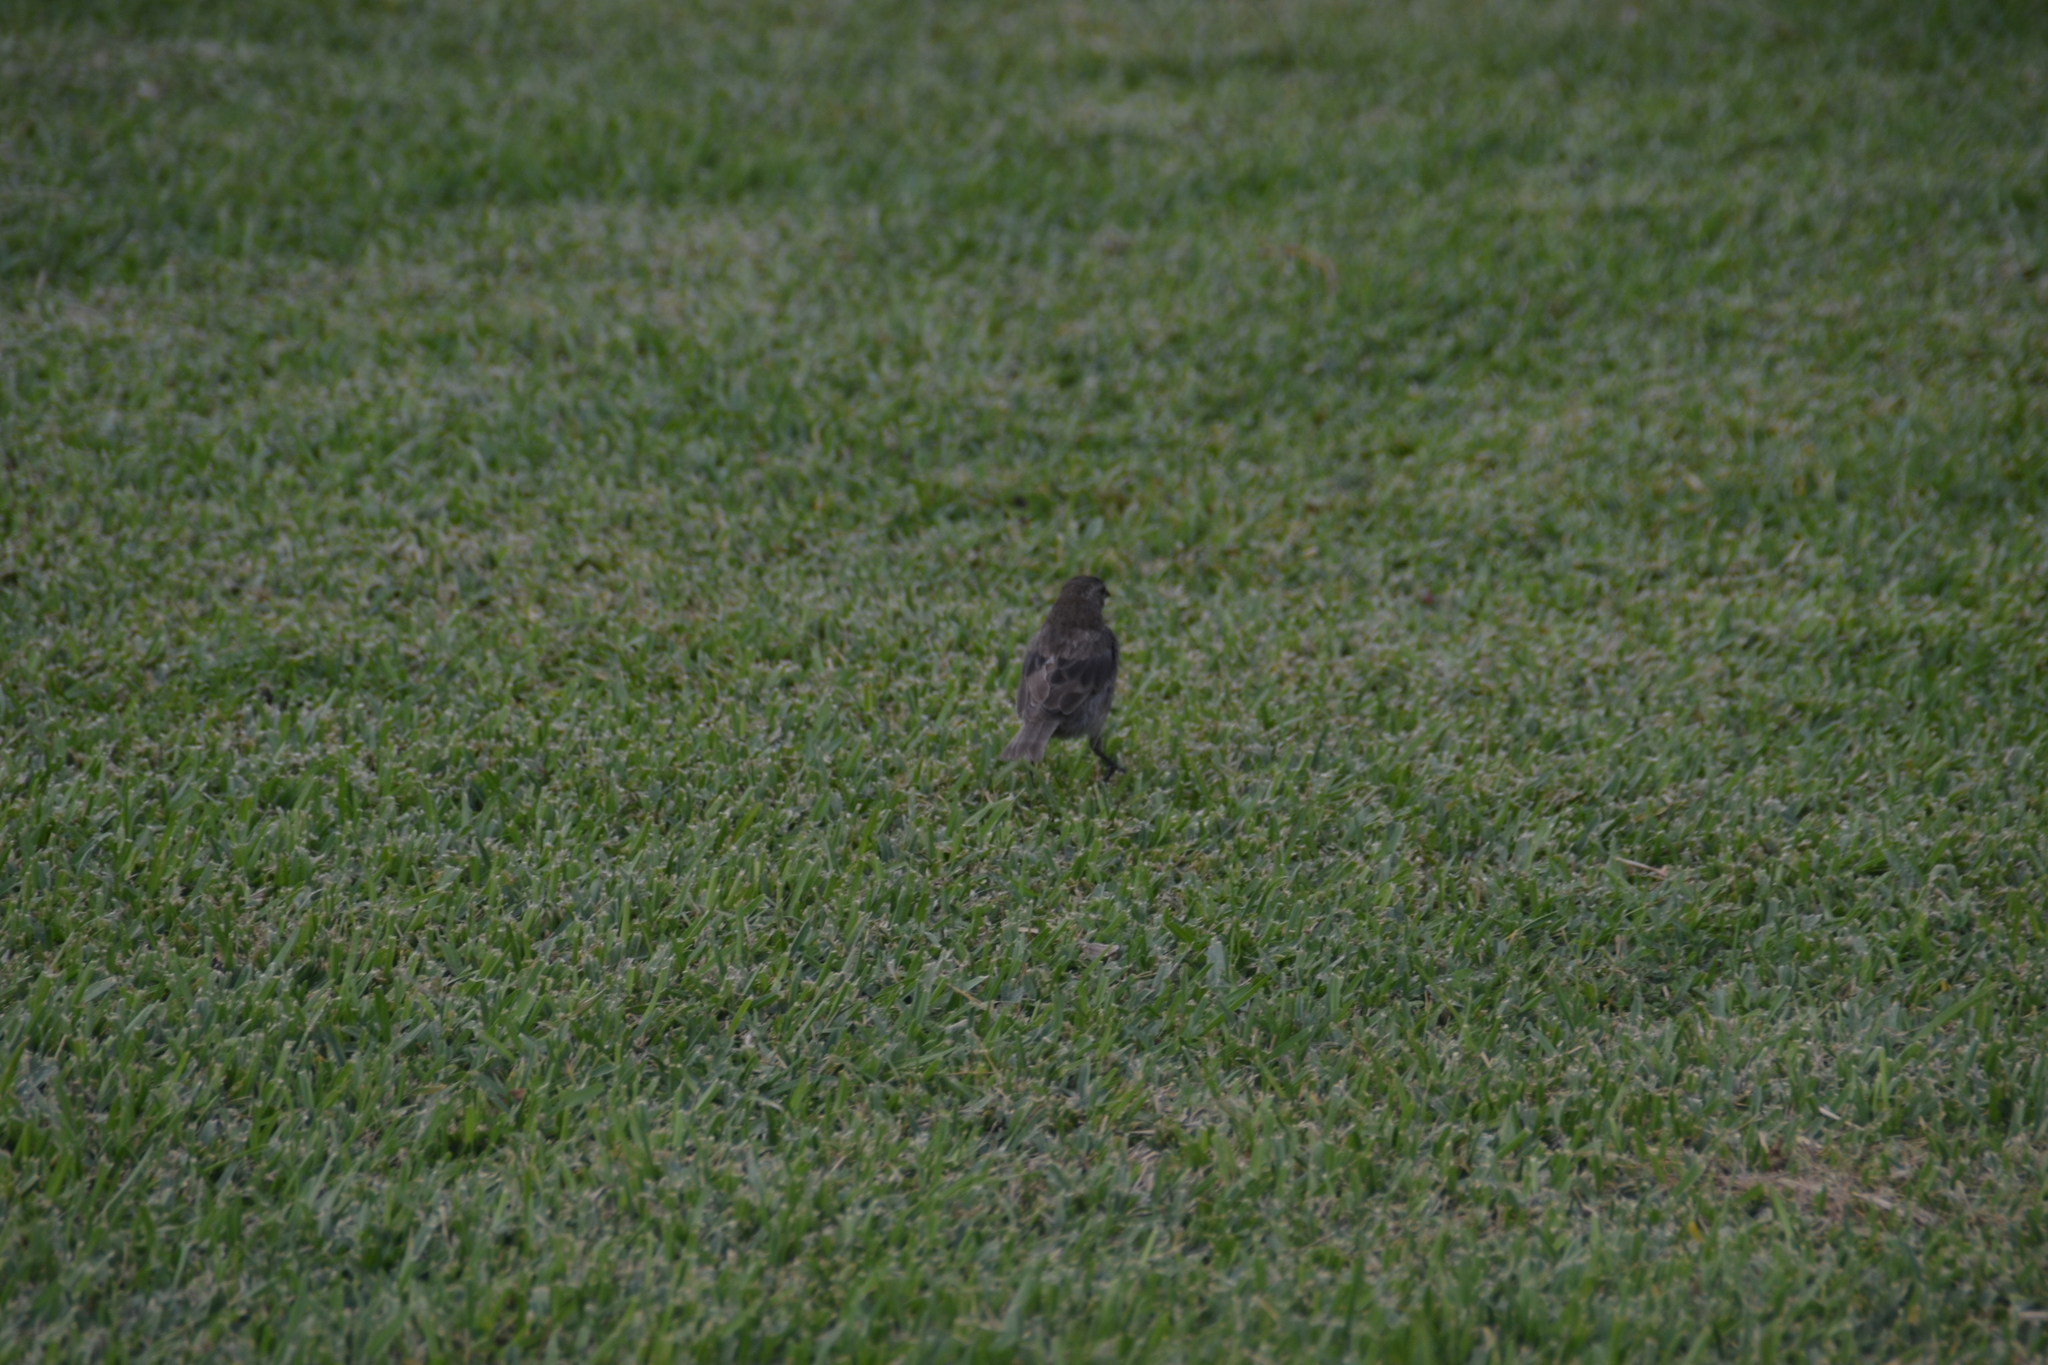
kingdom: Animalia
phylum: Chordata
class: Aves
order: Passeriformes
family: Icteridae
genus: Molothrus
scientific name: Molothrus bonariensis
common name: Shiny cowbird
